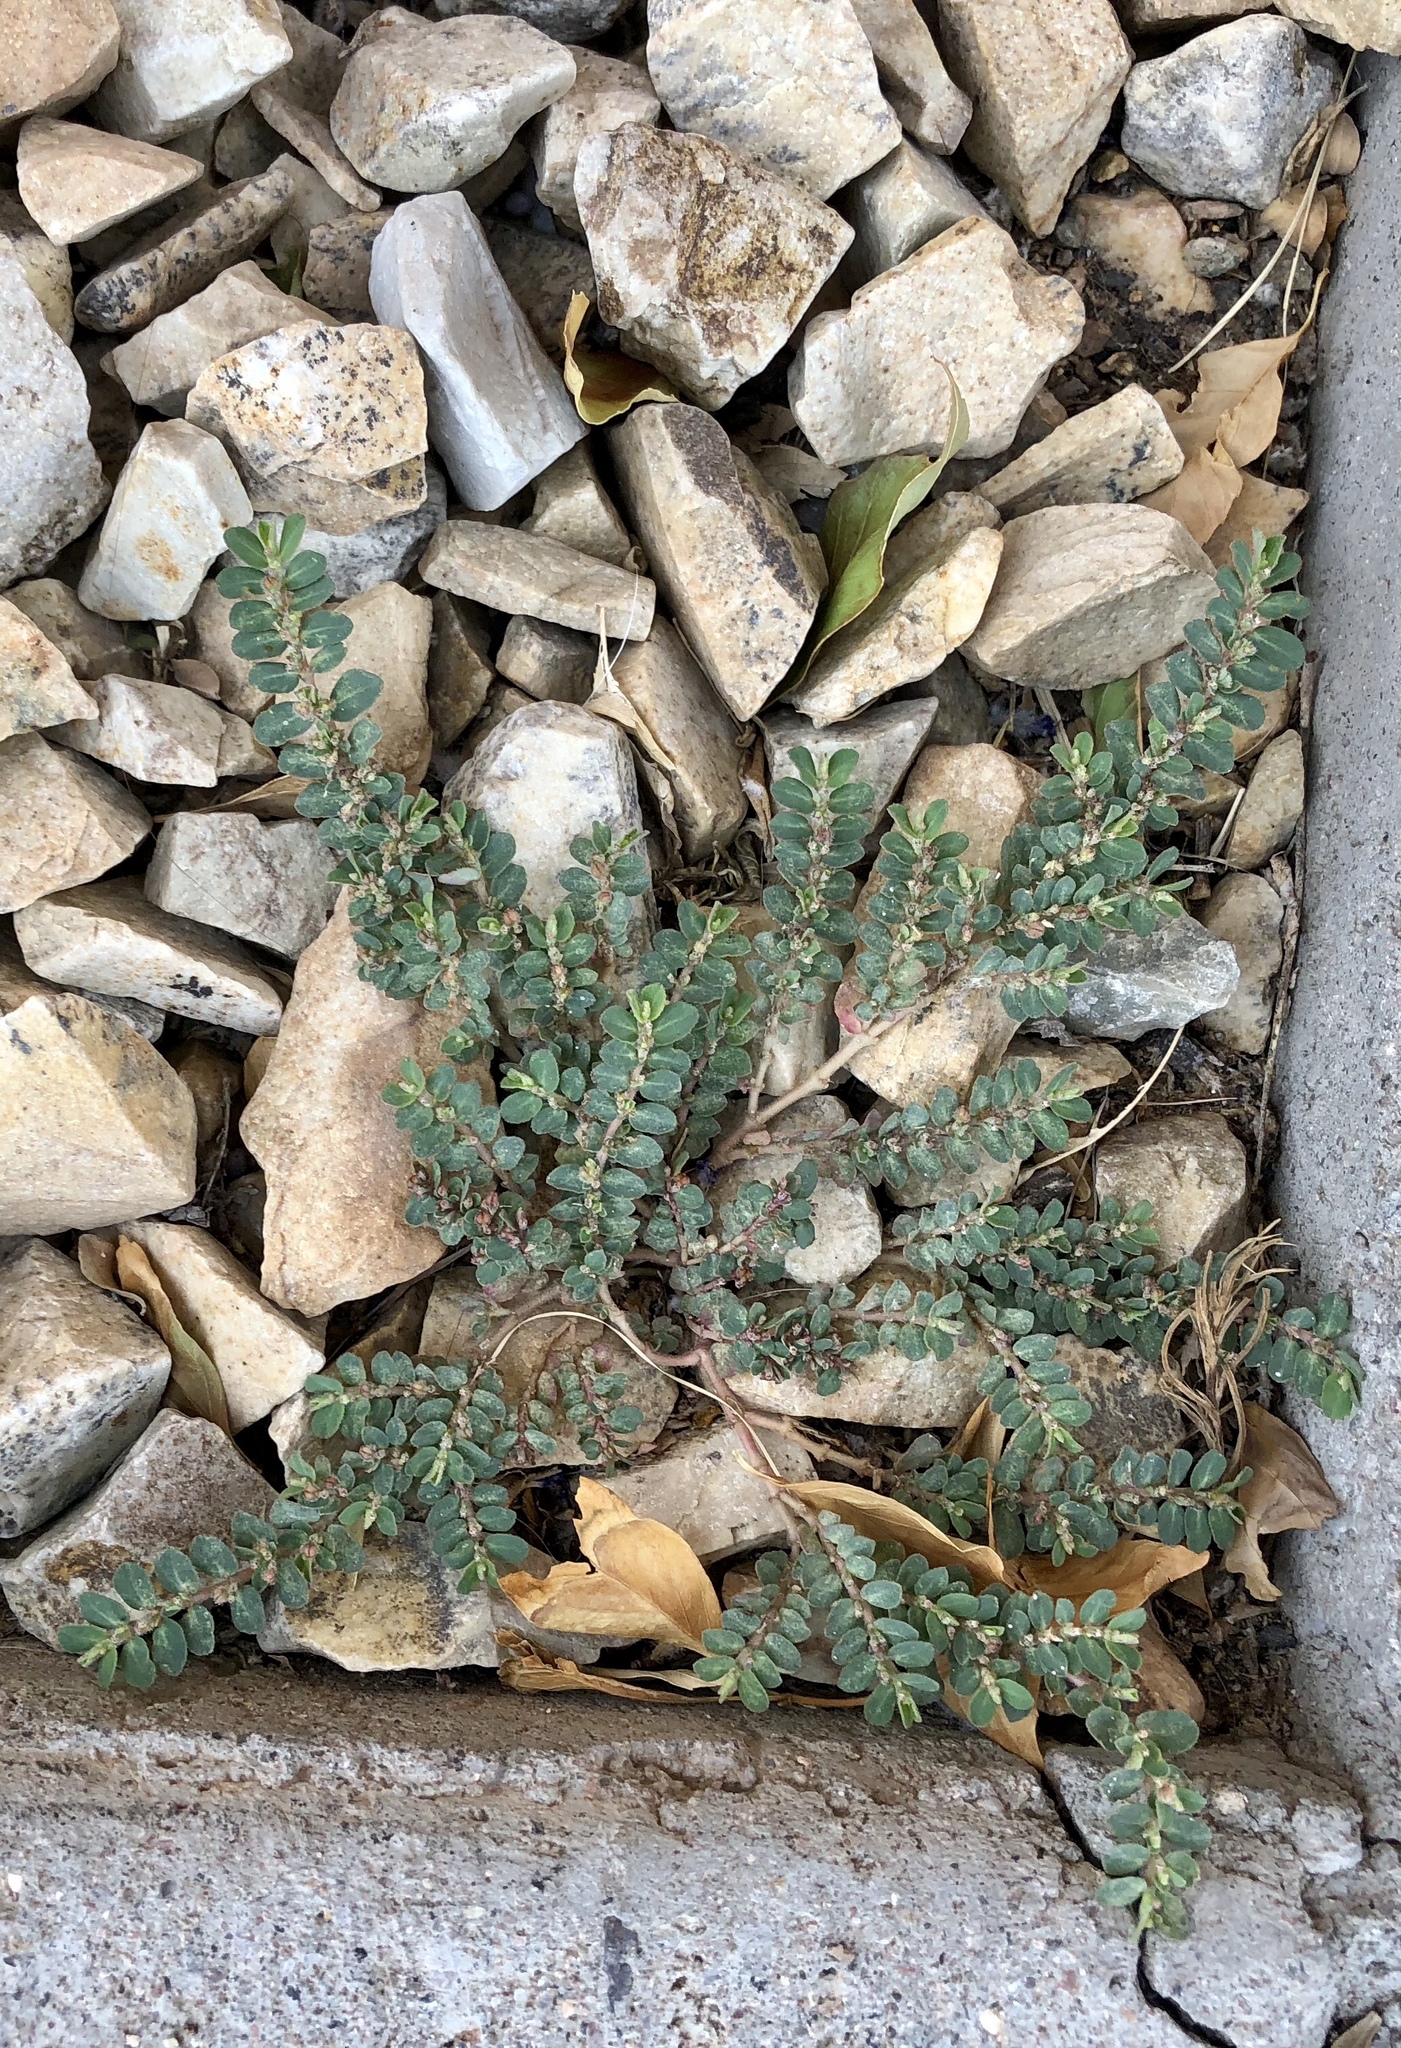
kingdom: Plantae
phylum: Tracheophyta
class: Magnoliopsida
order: Malpighiales
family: Euphorbiaceae
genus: Euphorbia
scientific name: Euphorbia prostrata
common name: Prostrate sandmat
